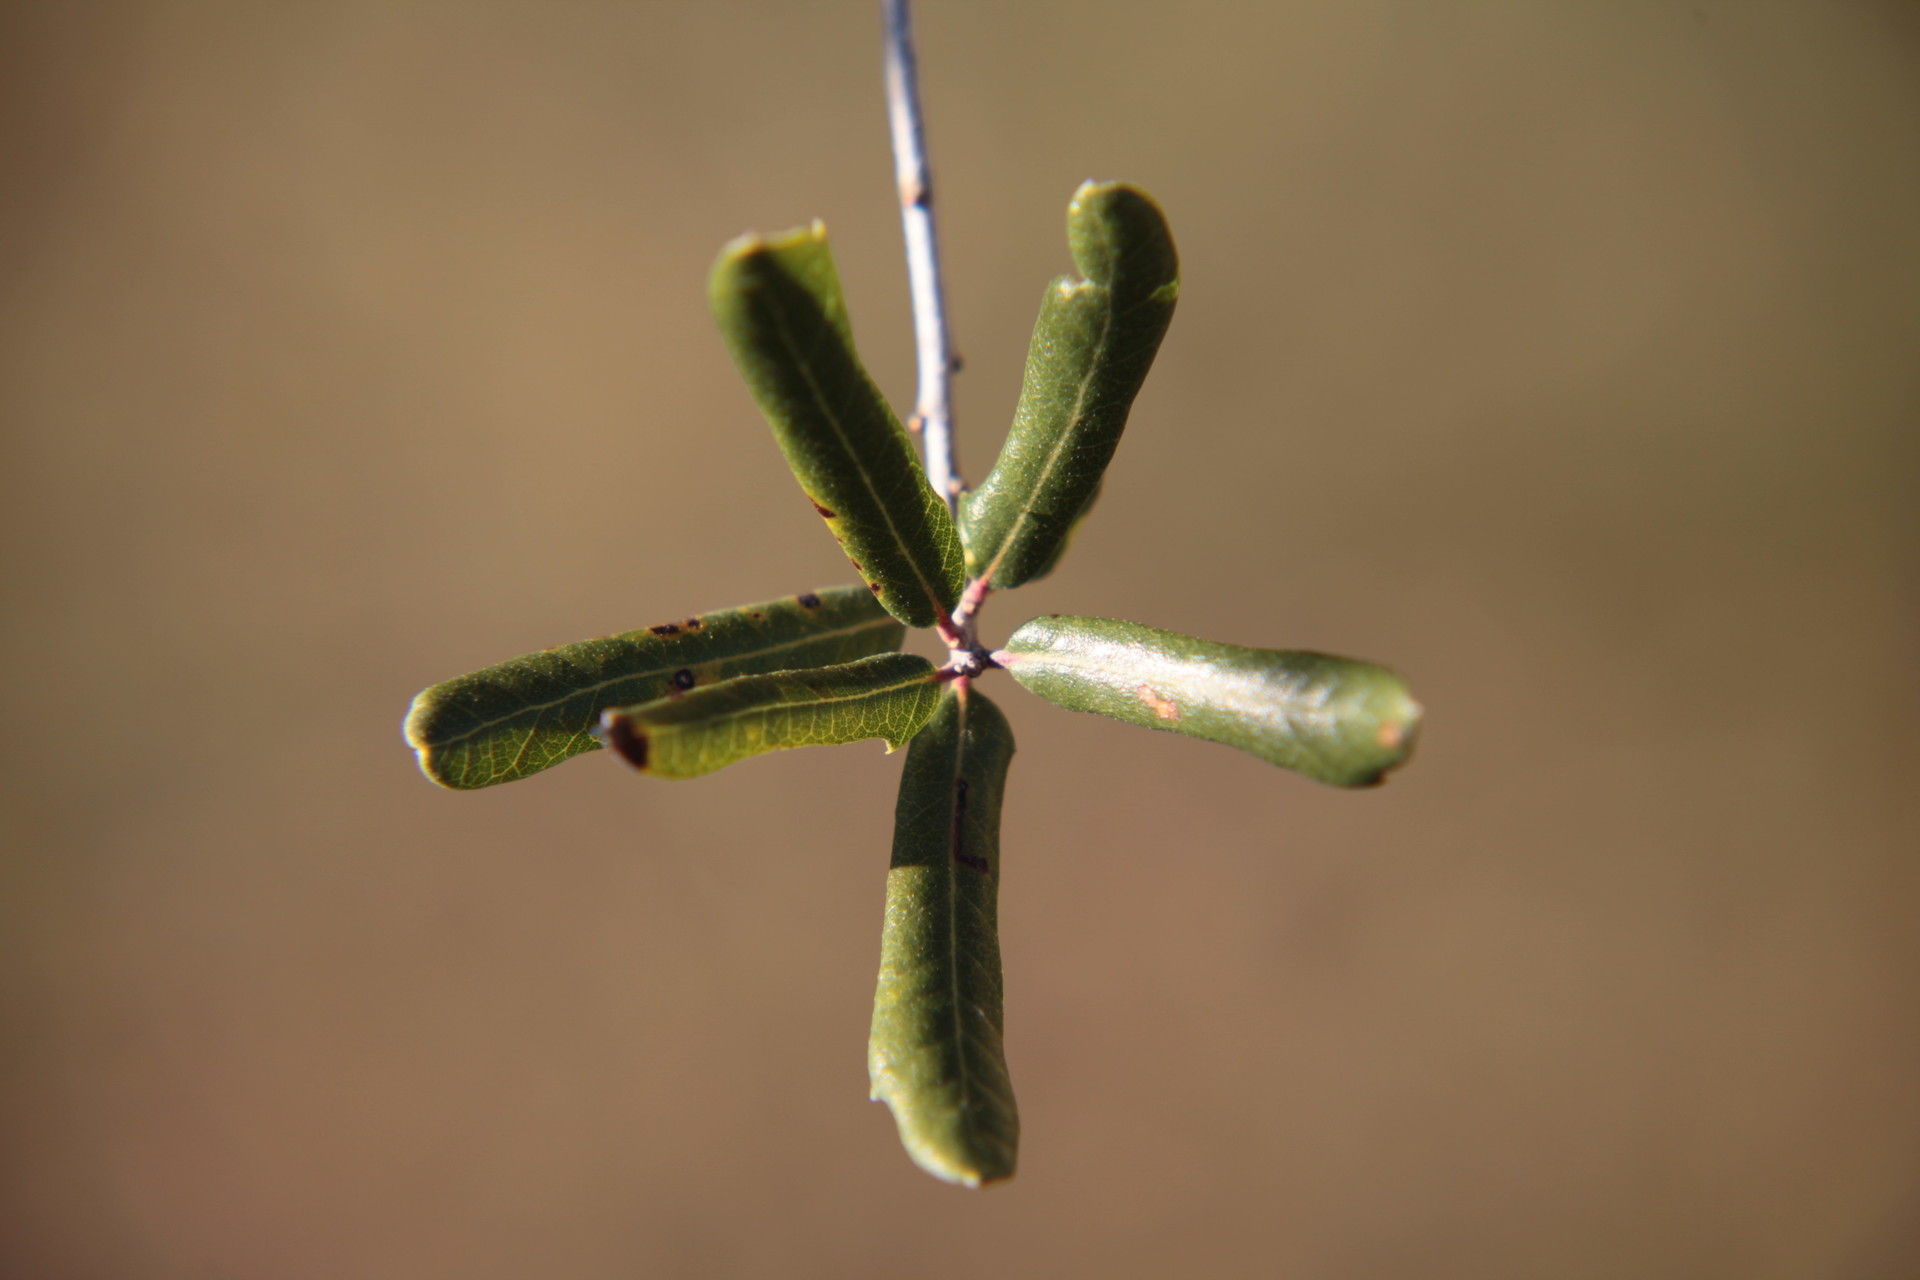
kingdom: Plantae
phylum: Tracheophyta
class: Magnoliopsida
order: Fagales
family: Fagaceae
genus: Quercus
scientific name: Quercus virginiana
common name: Southern live oak
